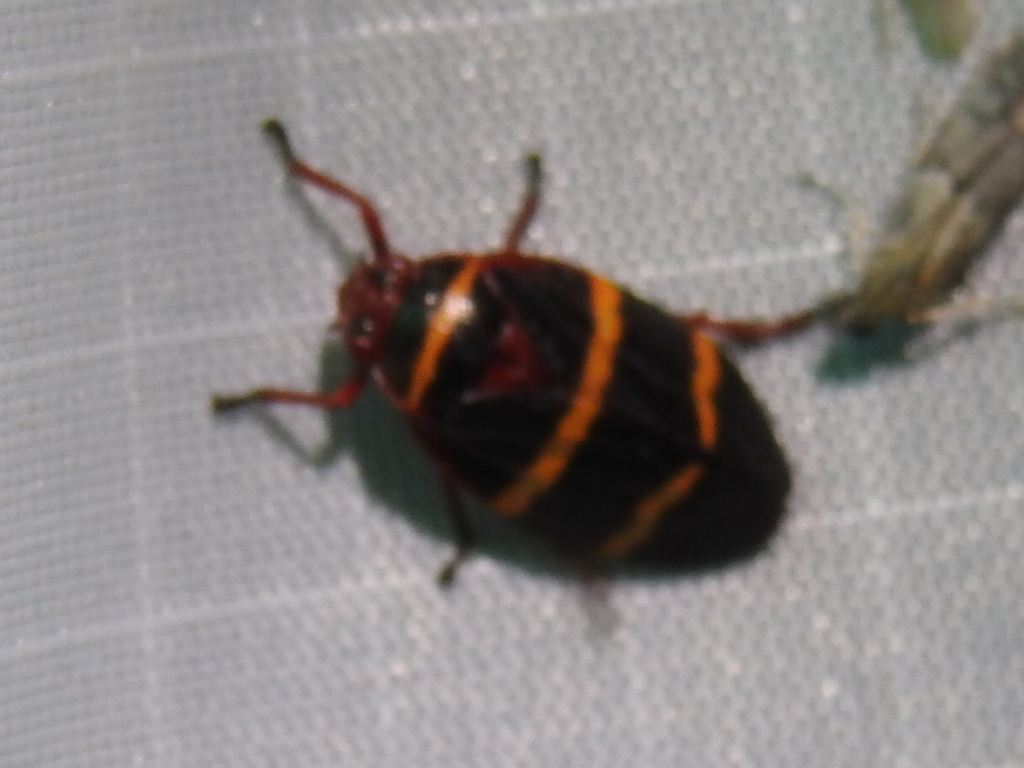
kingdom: Animalia
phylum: Arthropoda
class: Insecta
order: Hemiptera
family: Cercopidae
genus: Prosapia
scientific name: Prosapia bicincta
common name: Twolined spittlebug
